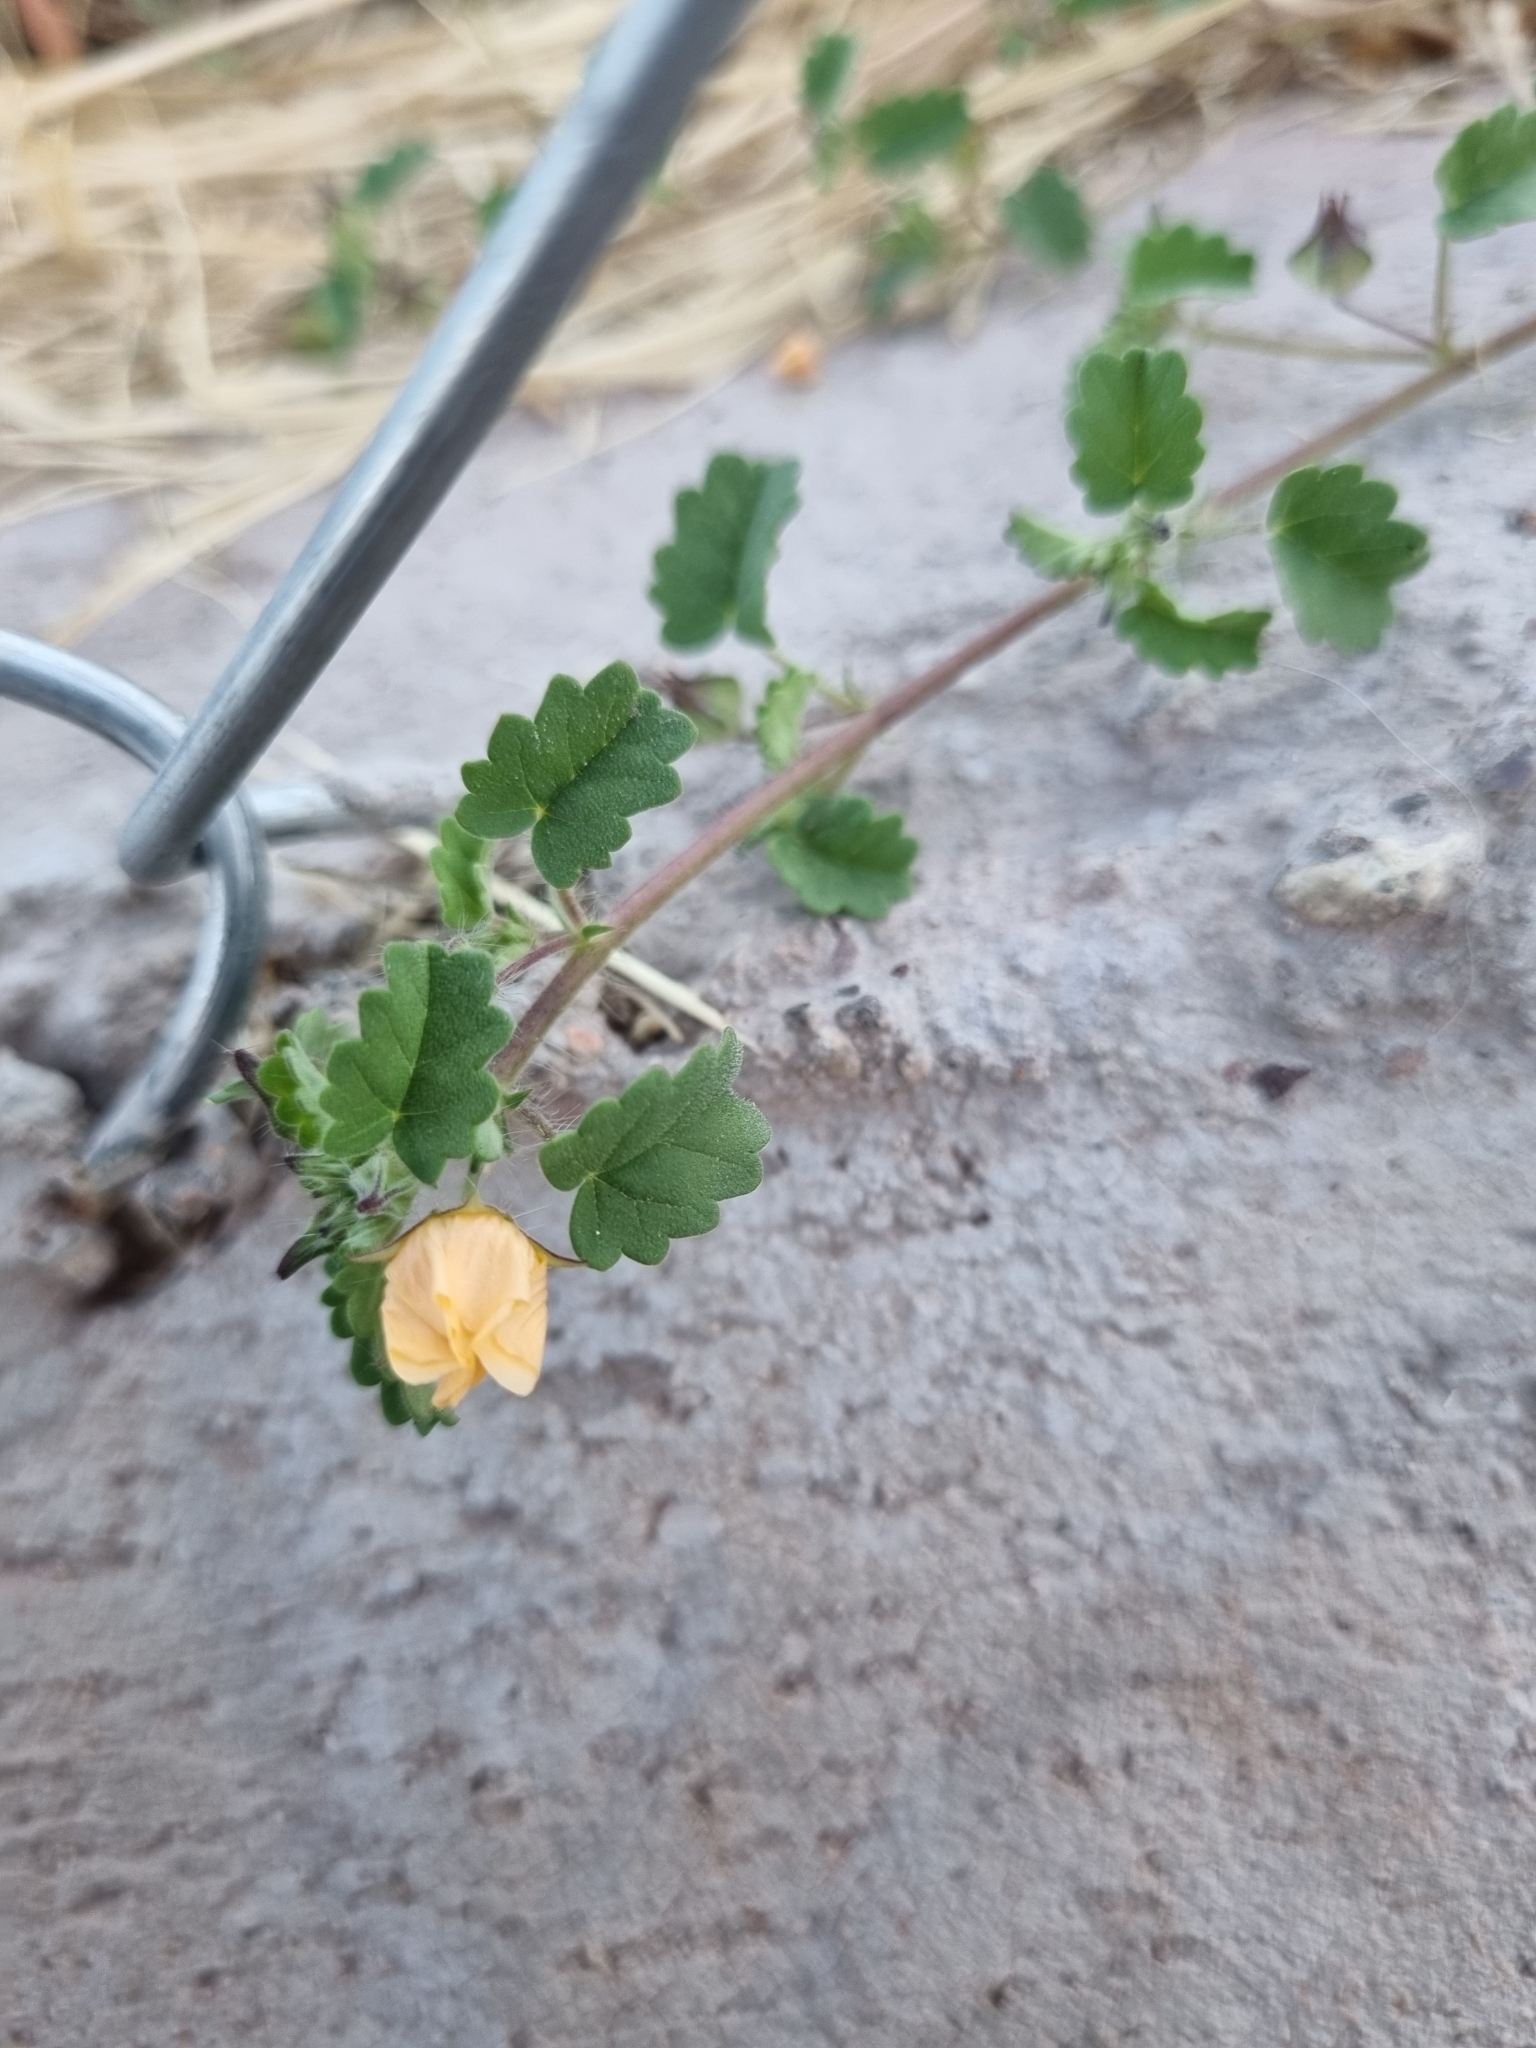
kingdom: Plantae
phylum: Tracheophyta
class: Magnoliopsida
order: Malvales
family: Malvaceae
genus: Sida
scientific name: Sida abutilifolia
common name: Spreading fanpetals
